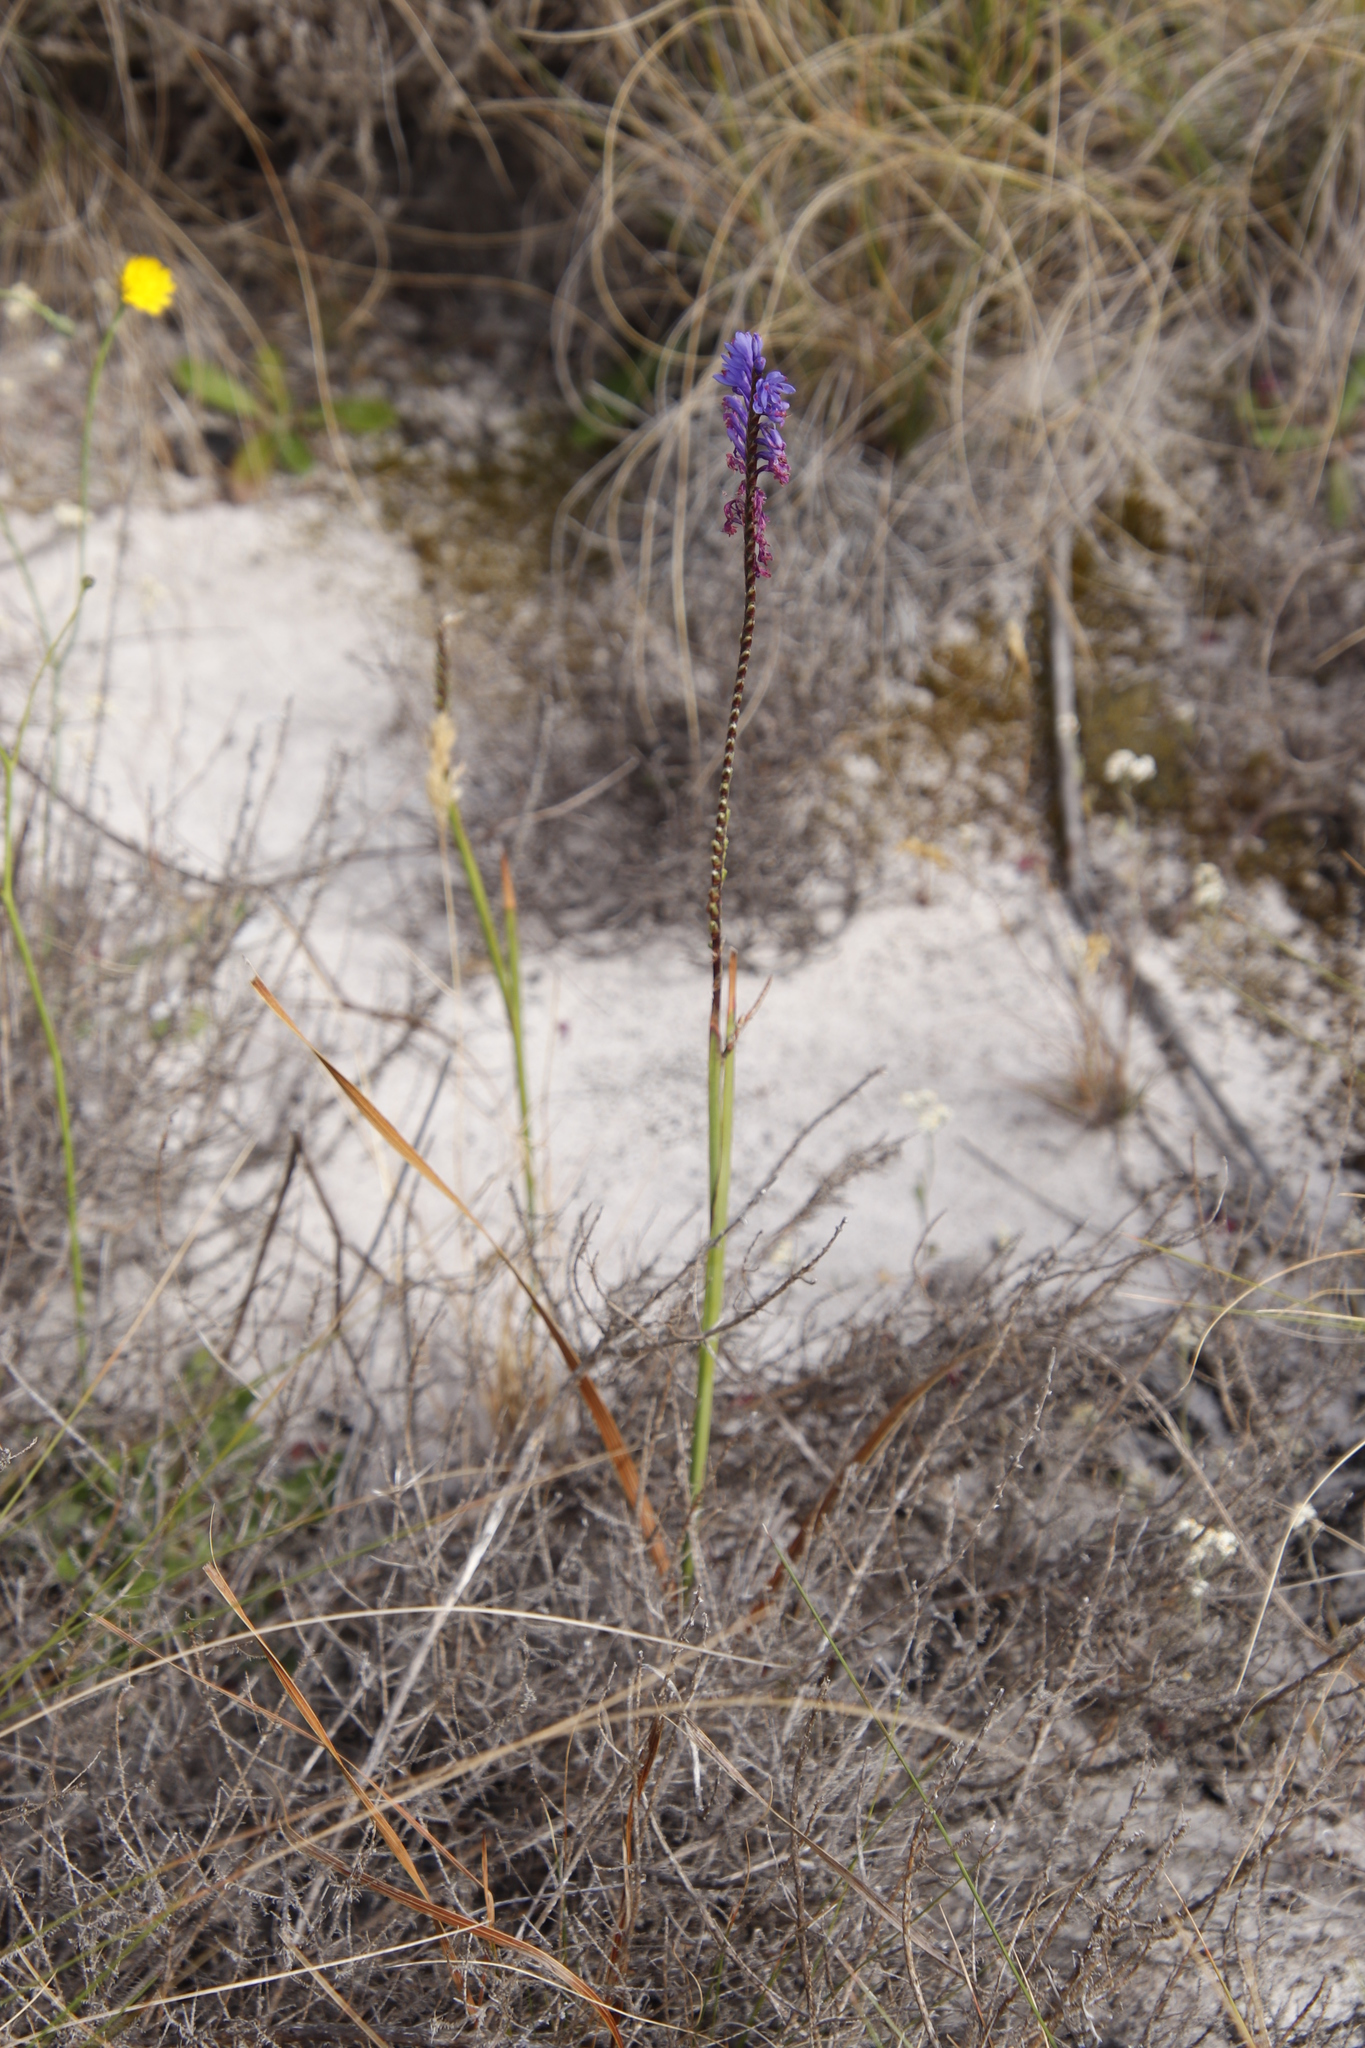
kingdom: Plantae
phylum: Tracheophyta
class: Liliopsida
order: Asparagales
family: Iridaceae
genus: Micranthus
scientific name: Micranthus alopecuroides
